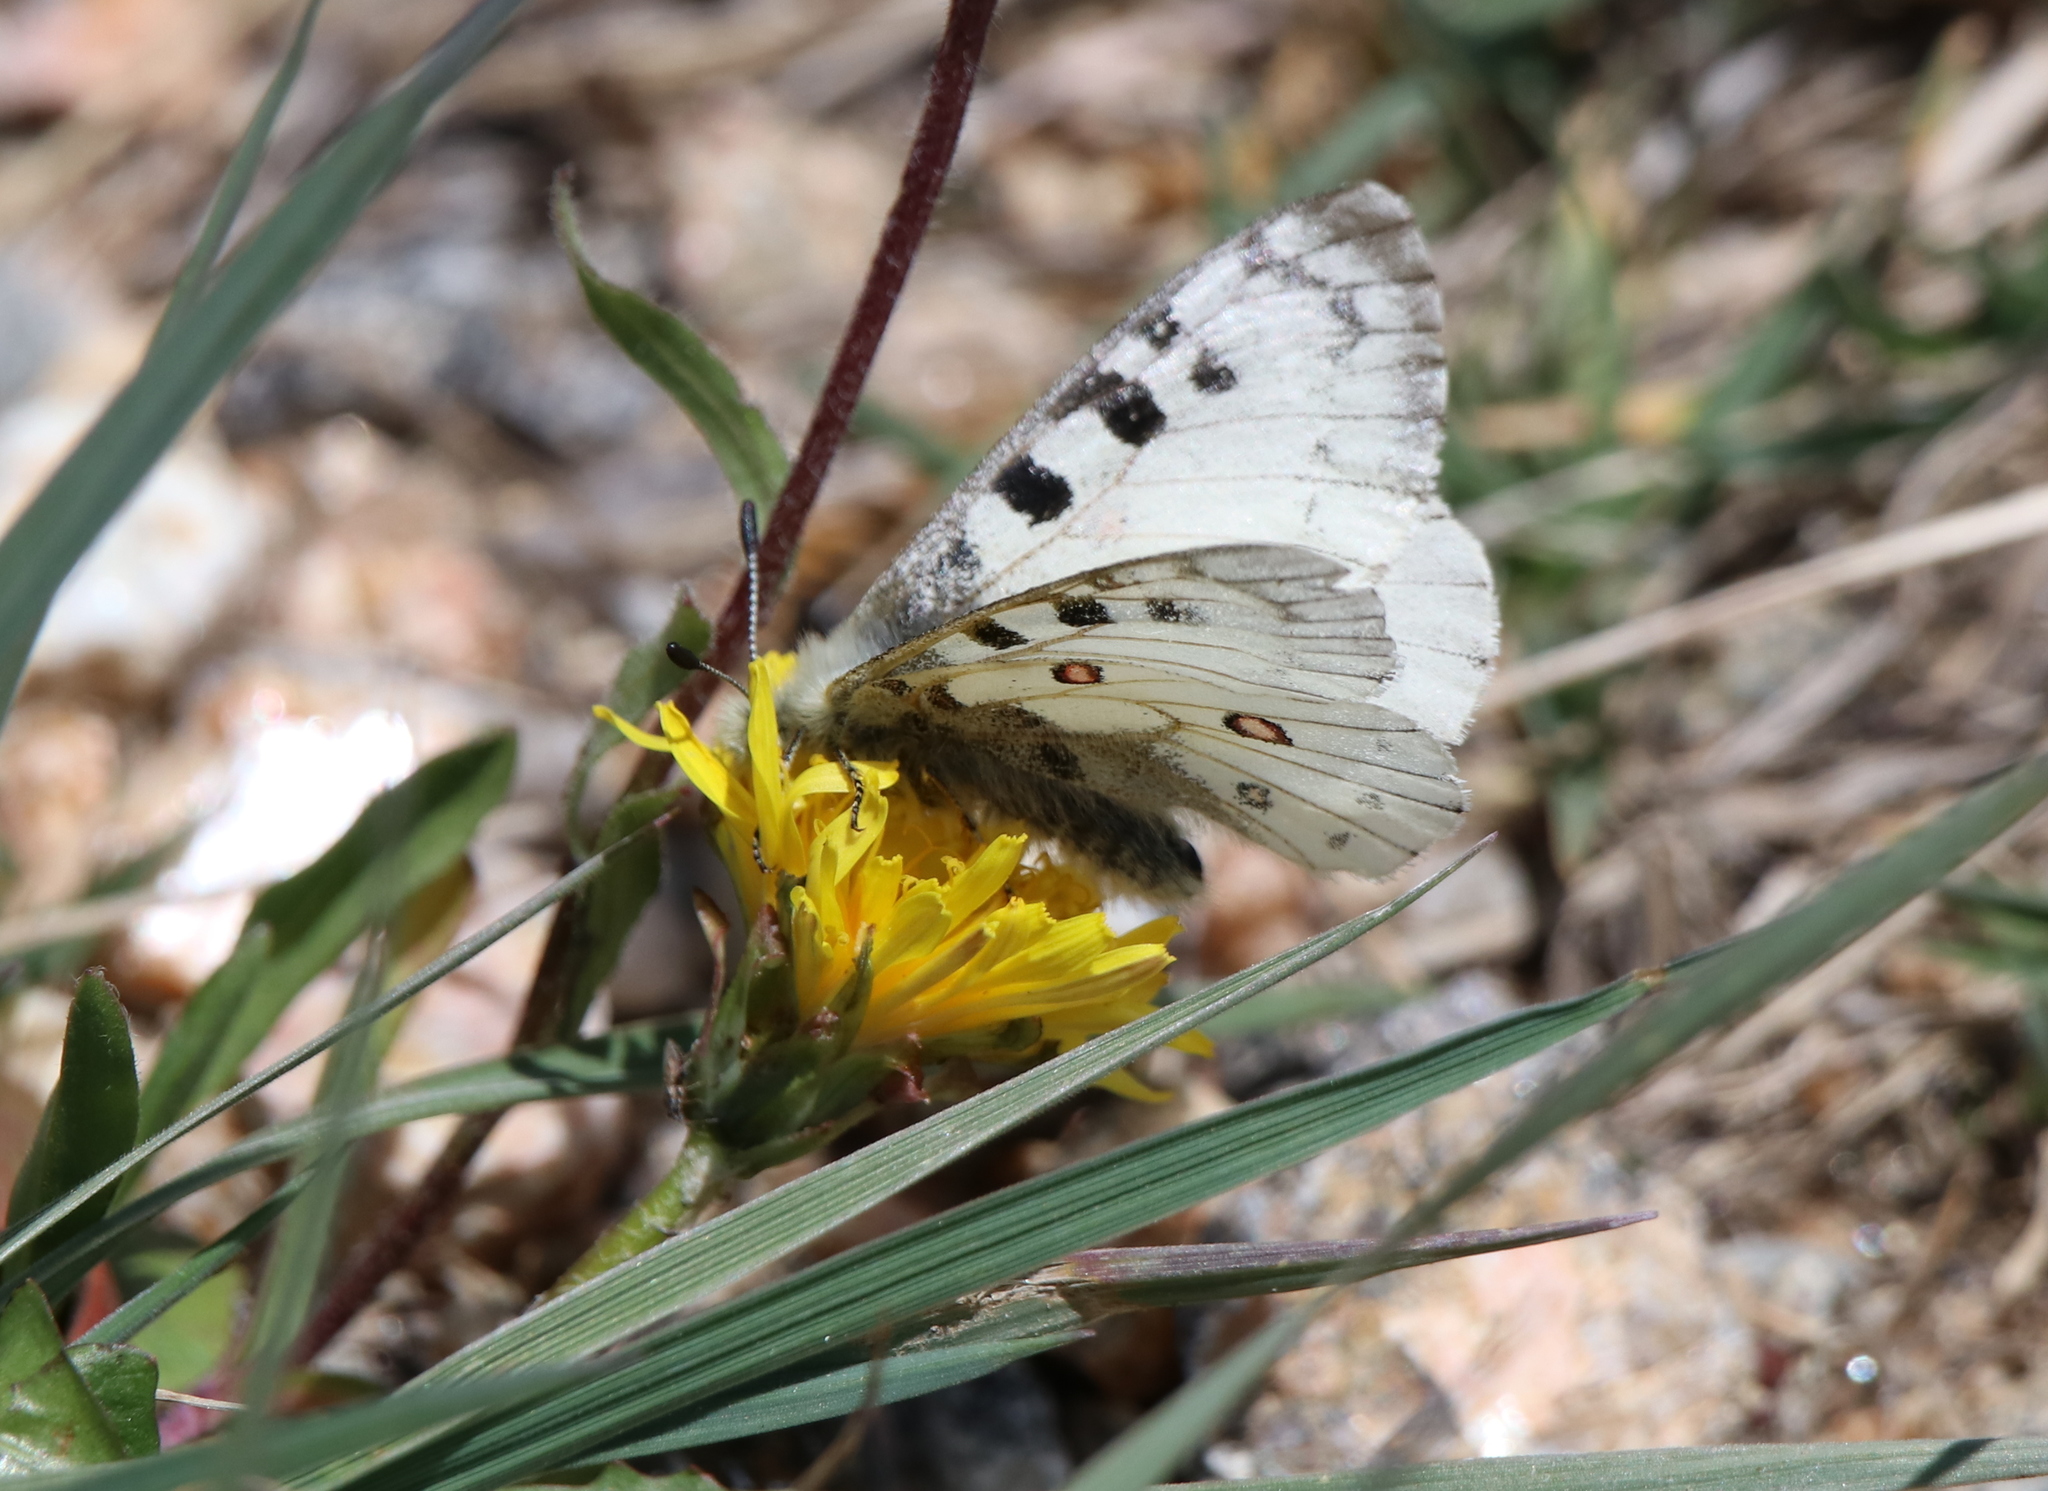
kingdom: Animalia
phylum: Arthropoda
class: Insecta
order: Lepidoptera
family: Papilionidae
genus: Parnassius
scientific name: Parnassius smintheus
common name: Mountain parnassian
